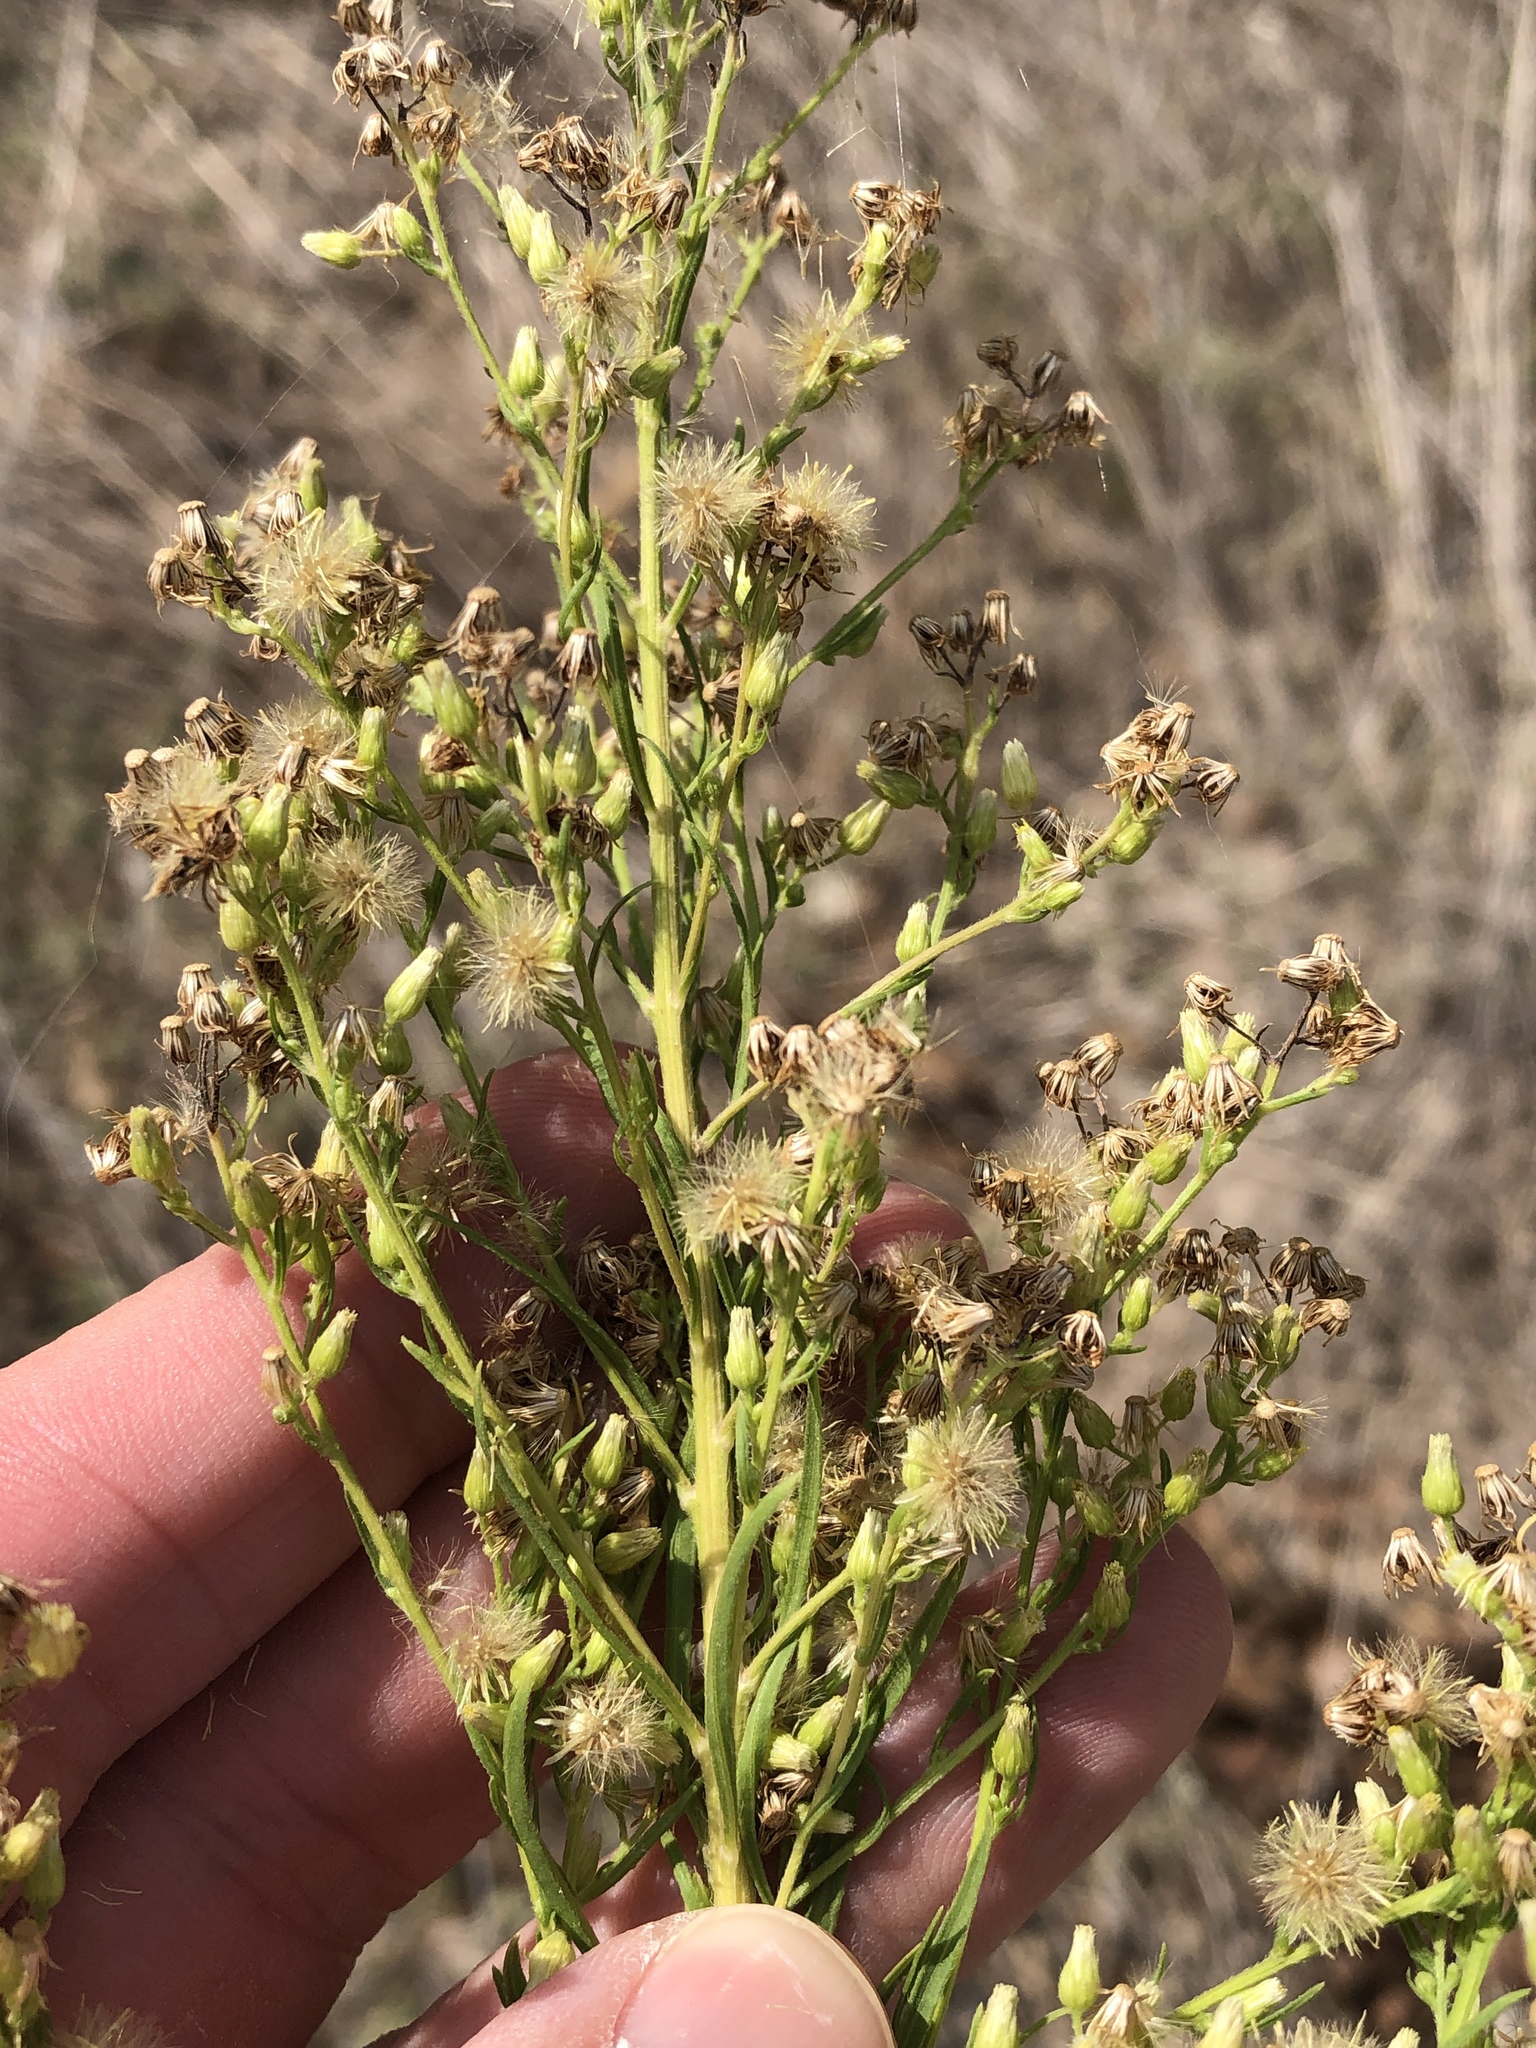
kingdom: Plantae
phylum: Tracheophyta
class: Magnoliopsida
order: Asterales
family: Asteraceae
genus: Erigeron
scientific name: Erigeron canadensis
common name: Canadian fleabane
